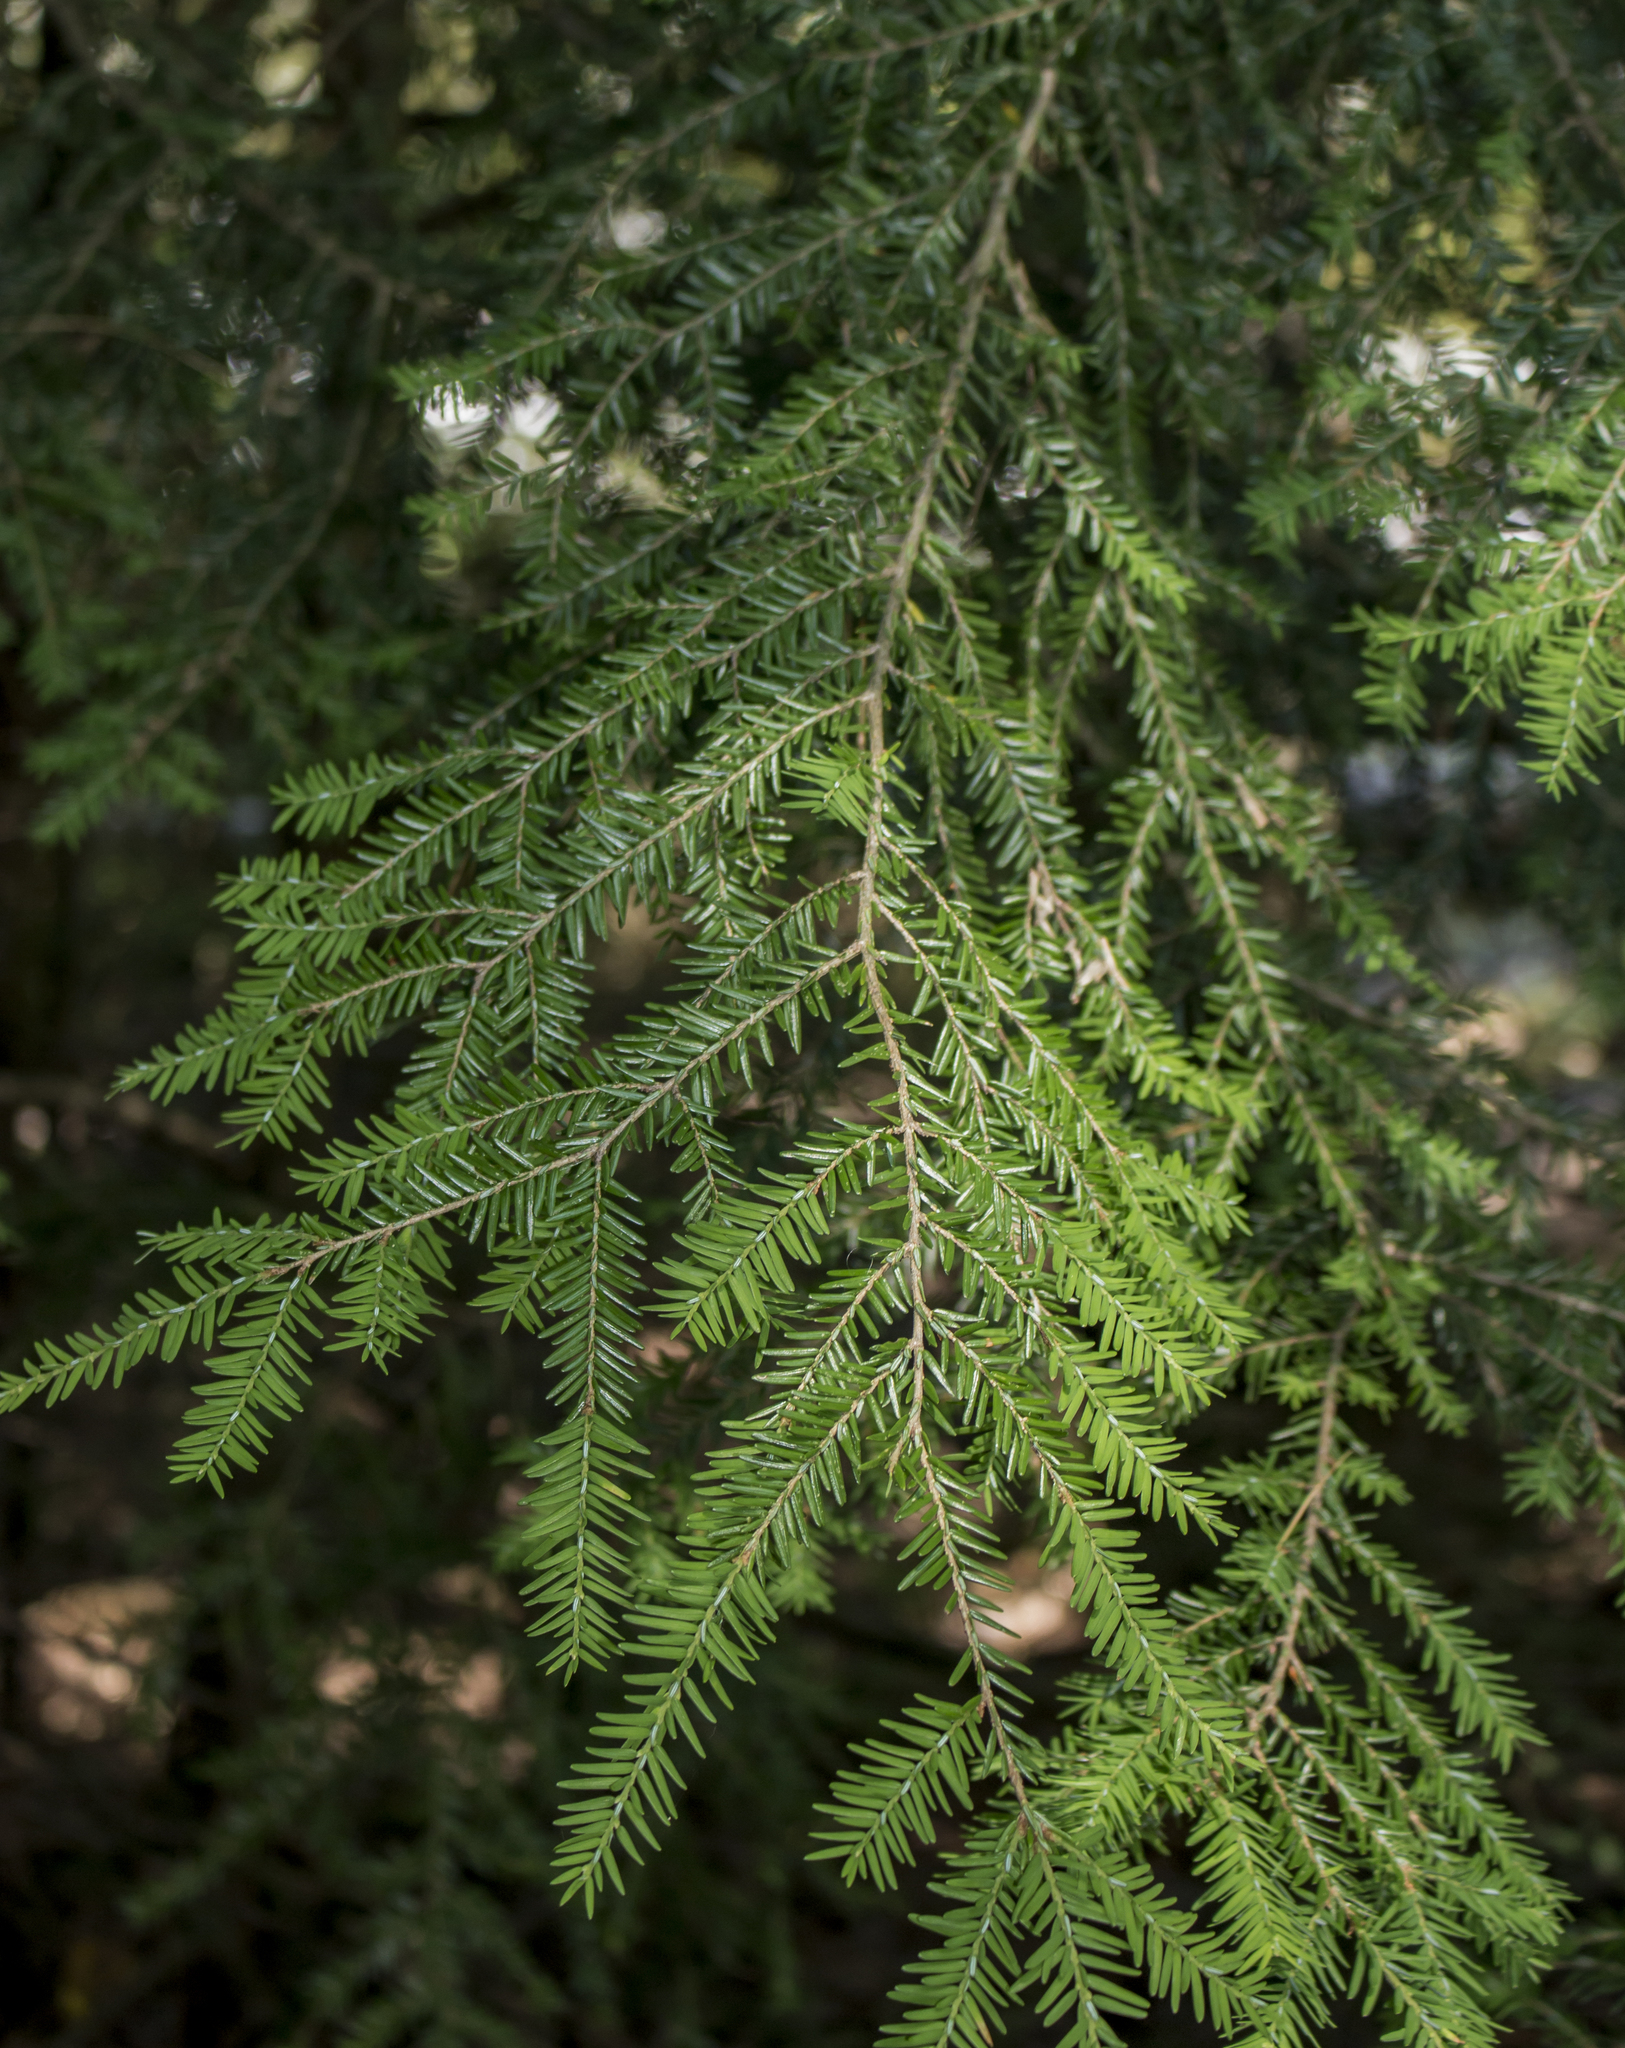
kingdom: Plantae
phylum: Tracheophyta
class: Pinopsida
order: Pinales
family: Pinaceae
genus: Tsuga
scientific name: Tsuga canadensis
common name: Eastern hemlock
